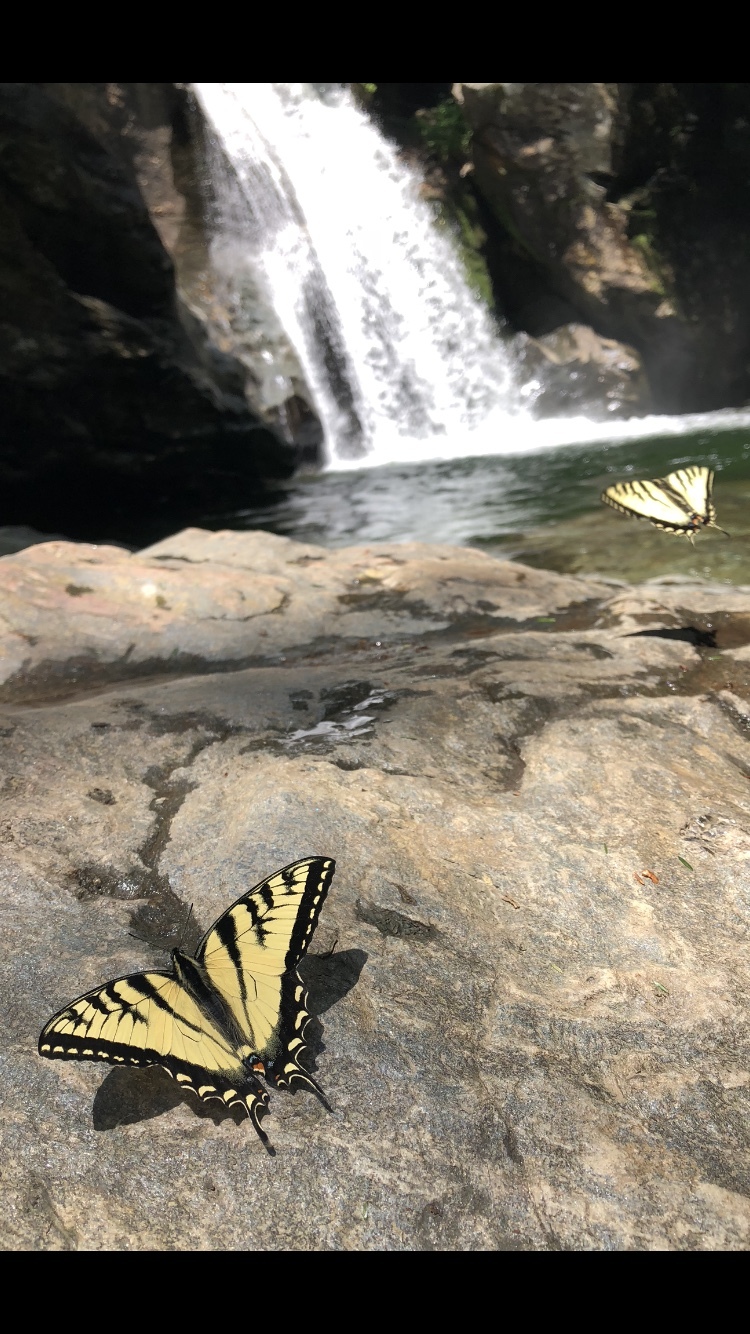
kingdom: Animalia
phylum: Arthropoda
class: Insecta
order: Lepidoptera
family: Papilionidae
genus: Papilio
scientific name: Papilio canadensis
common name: Canadian tiger swallowtail
